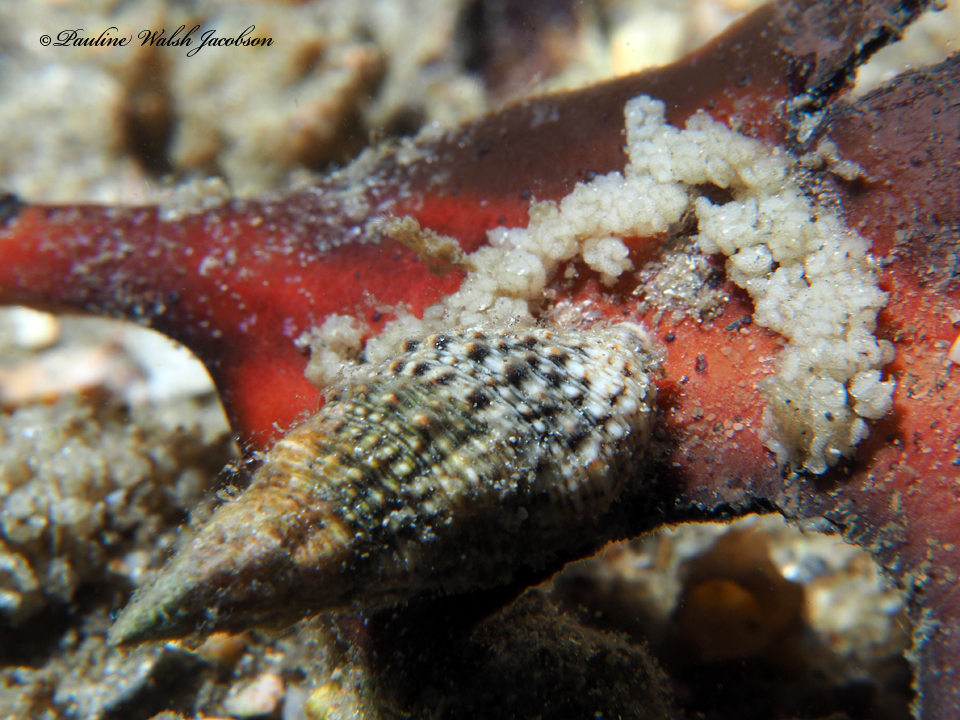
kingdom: Animalia
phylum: Mollusca
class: Gastropoda
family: Cerithiidae
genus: Cerithium
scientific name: Cerithium atratum
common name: Dark cerith
